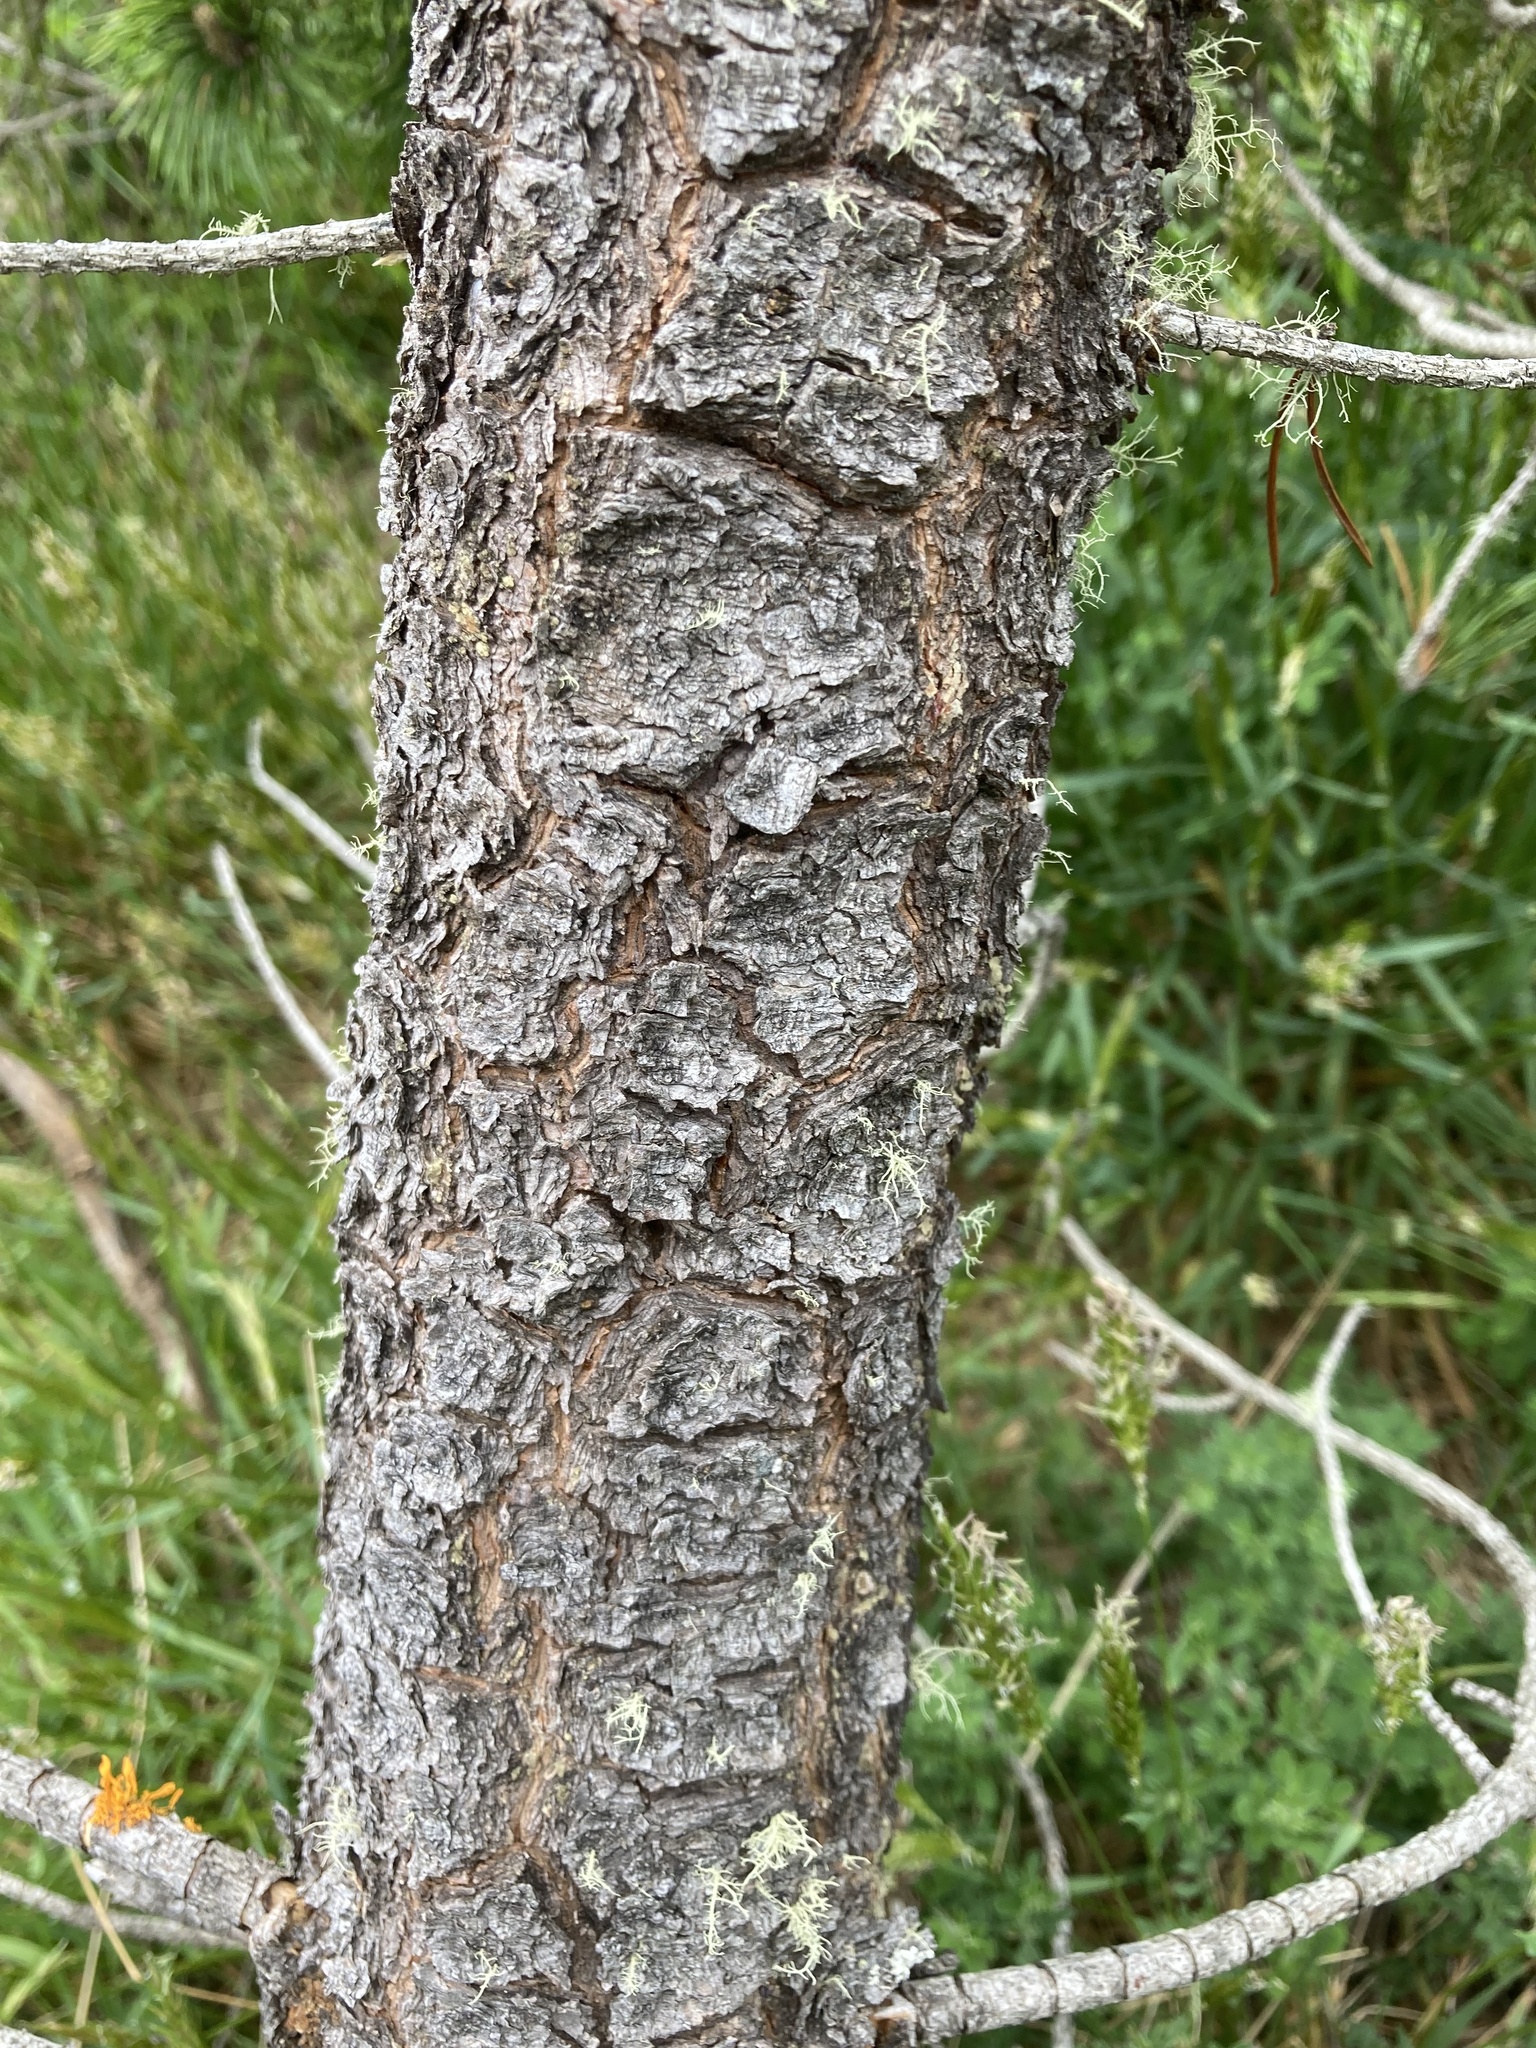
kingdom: Plantae
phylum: Tracheophyta
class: Pinopsida
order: Pinales
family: Pinaceae
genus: Pinus
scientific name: Pinus contorta
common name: Lodgepole pine
